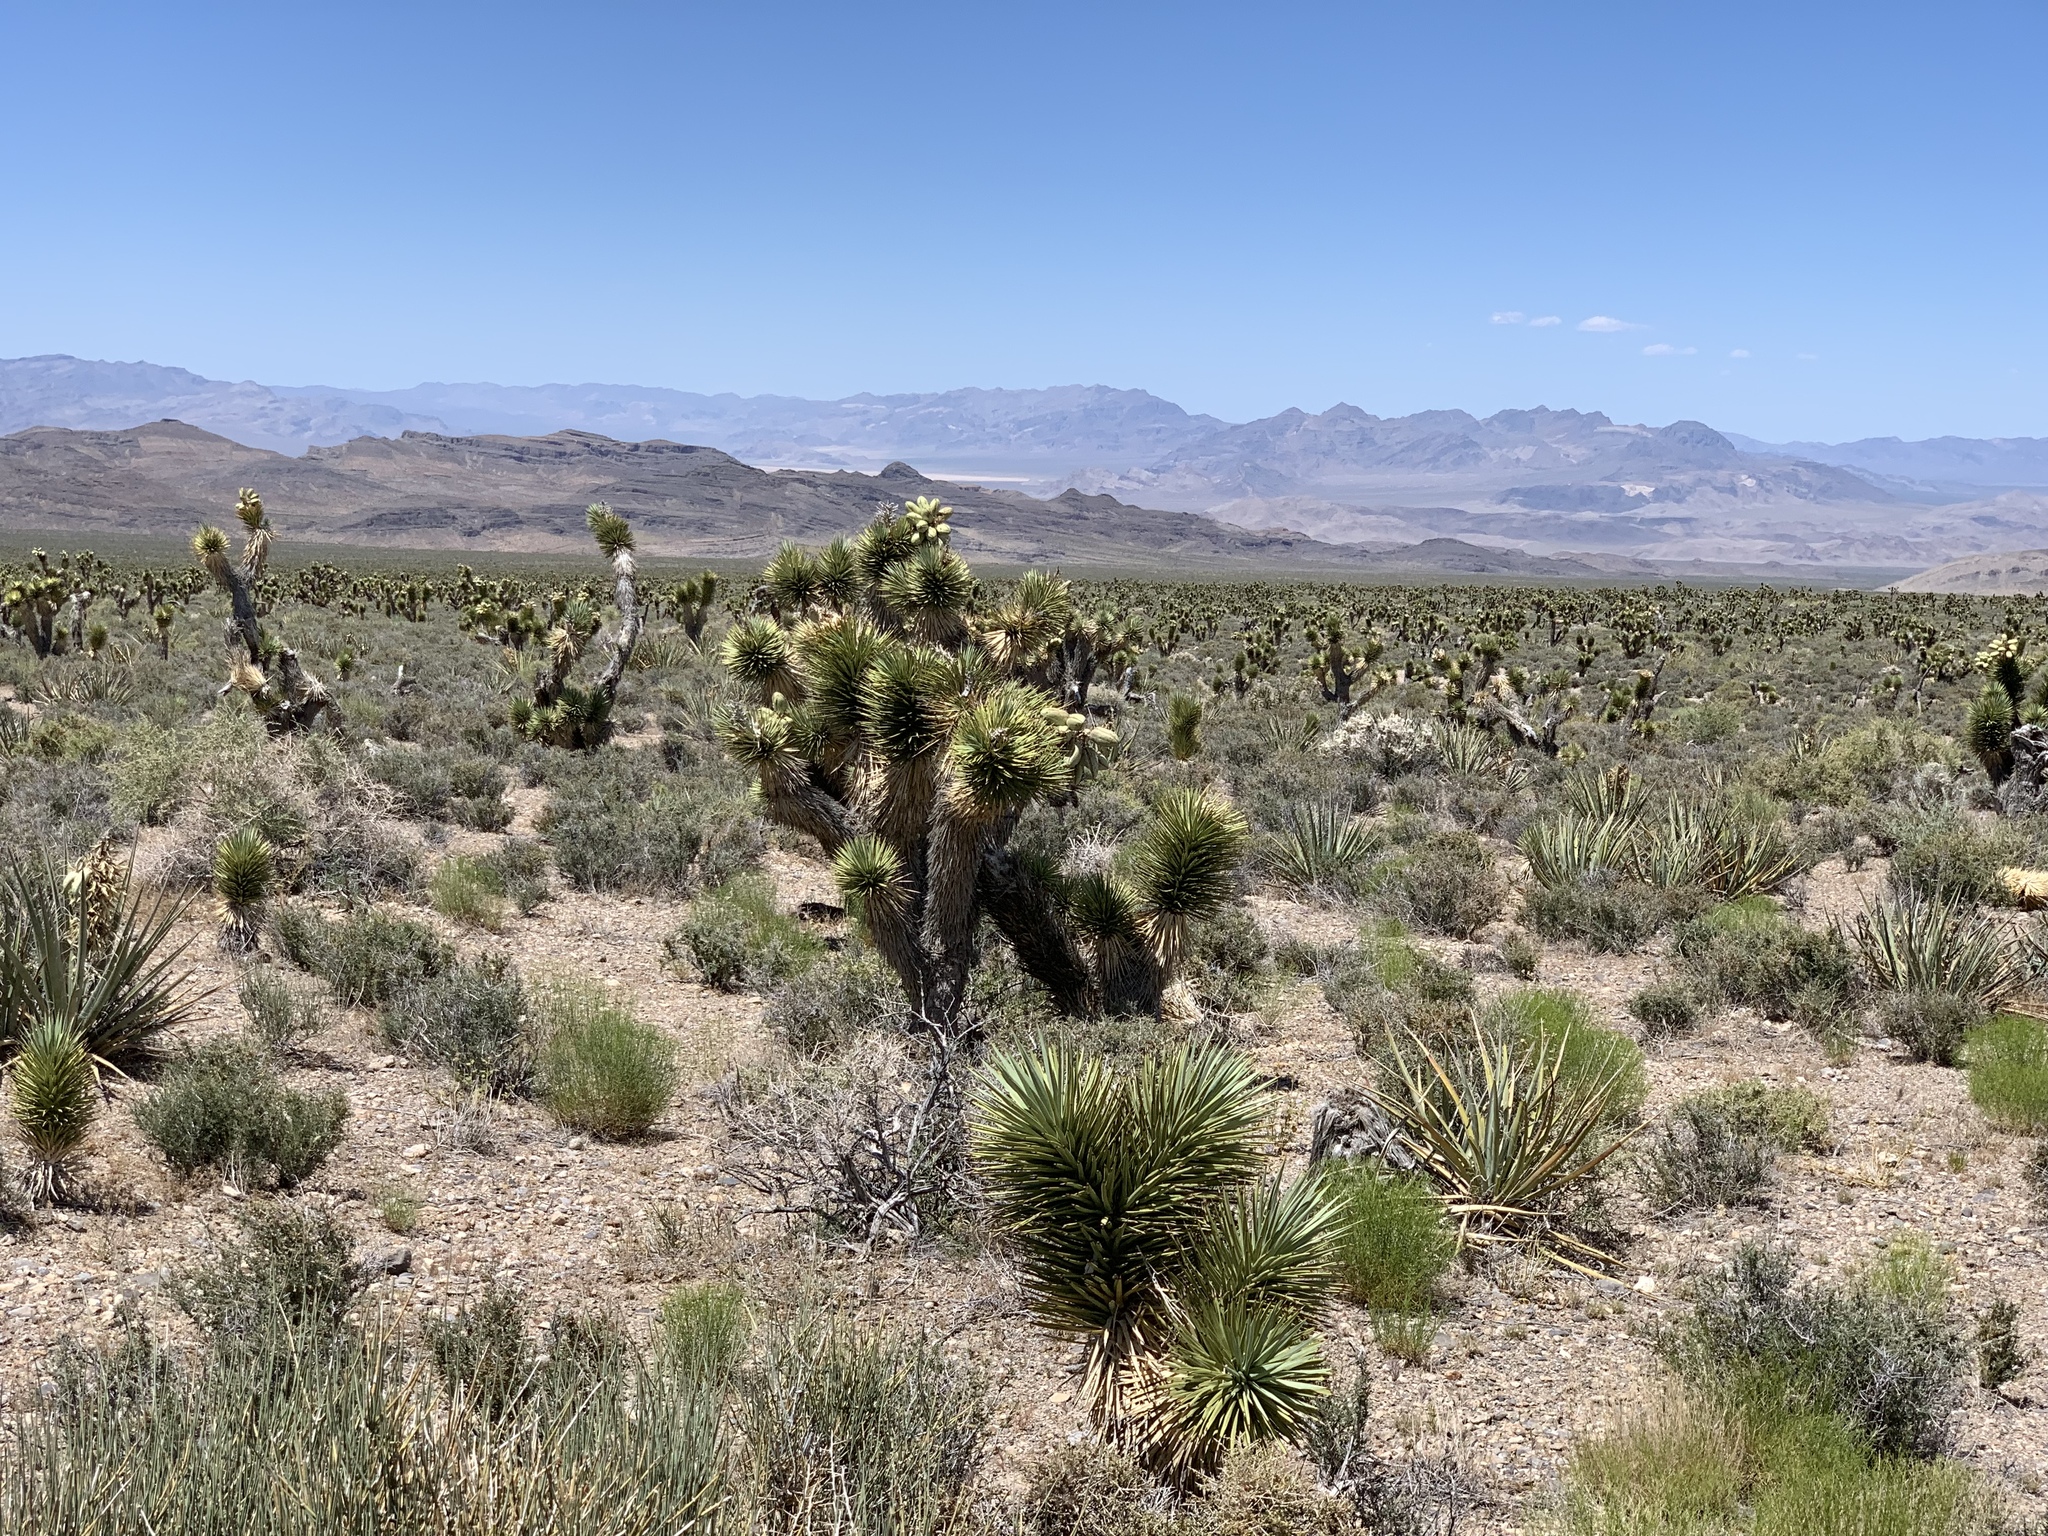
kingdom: Plantae
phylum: Tracheophyta
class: Liliopsida
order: Asparagales
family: Asparagaceae
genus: Yucca
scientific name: Yucca brevifolia
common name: Joshua tree
